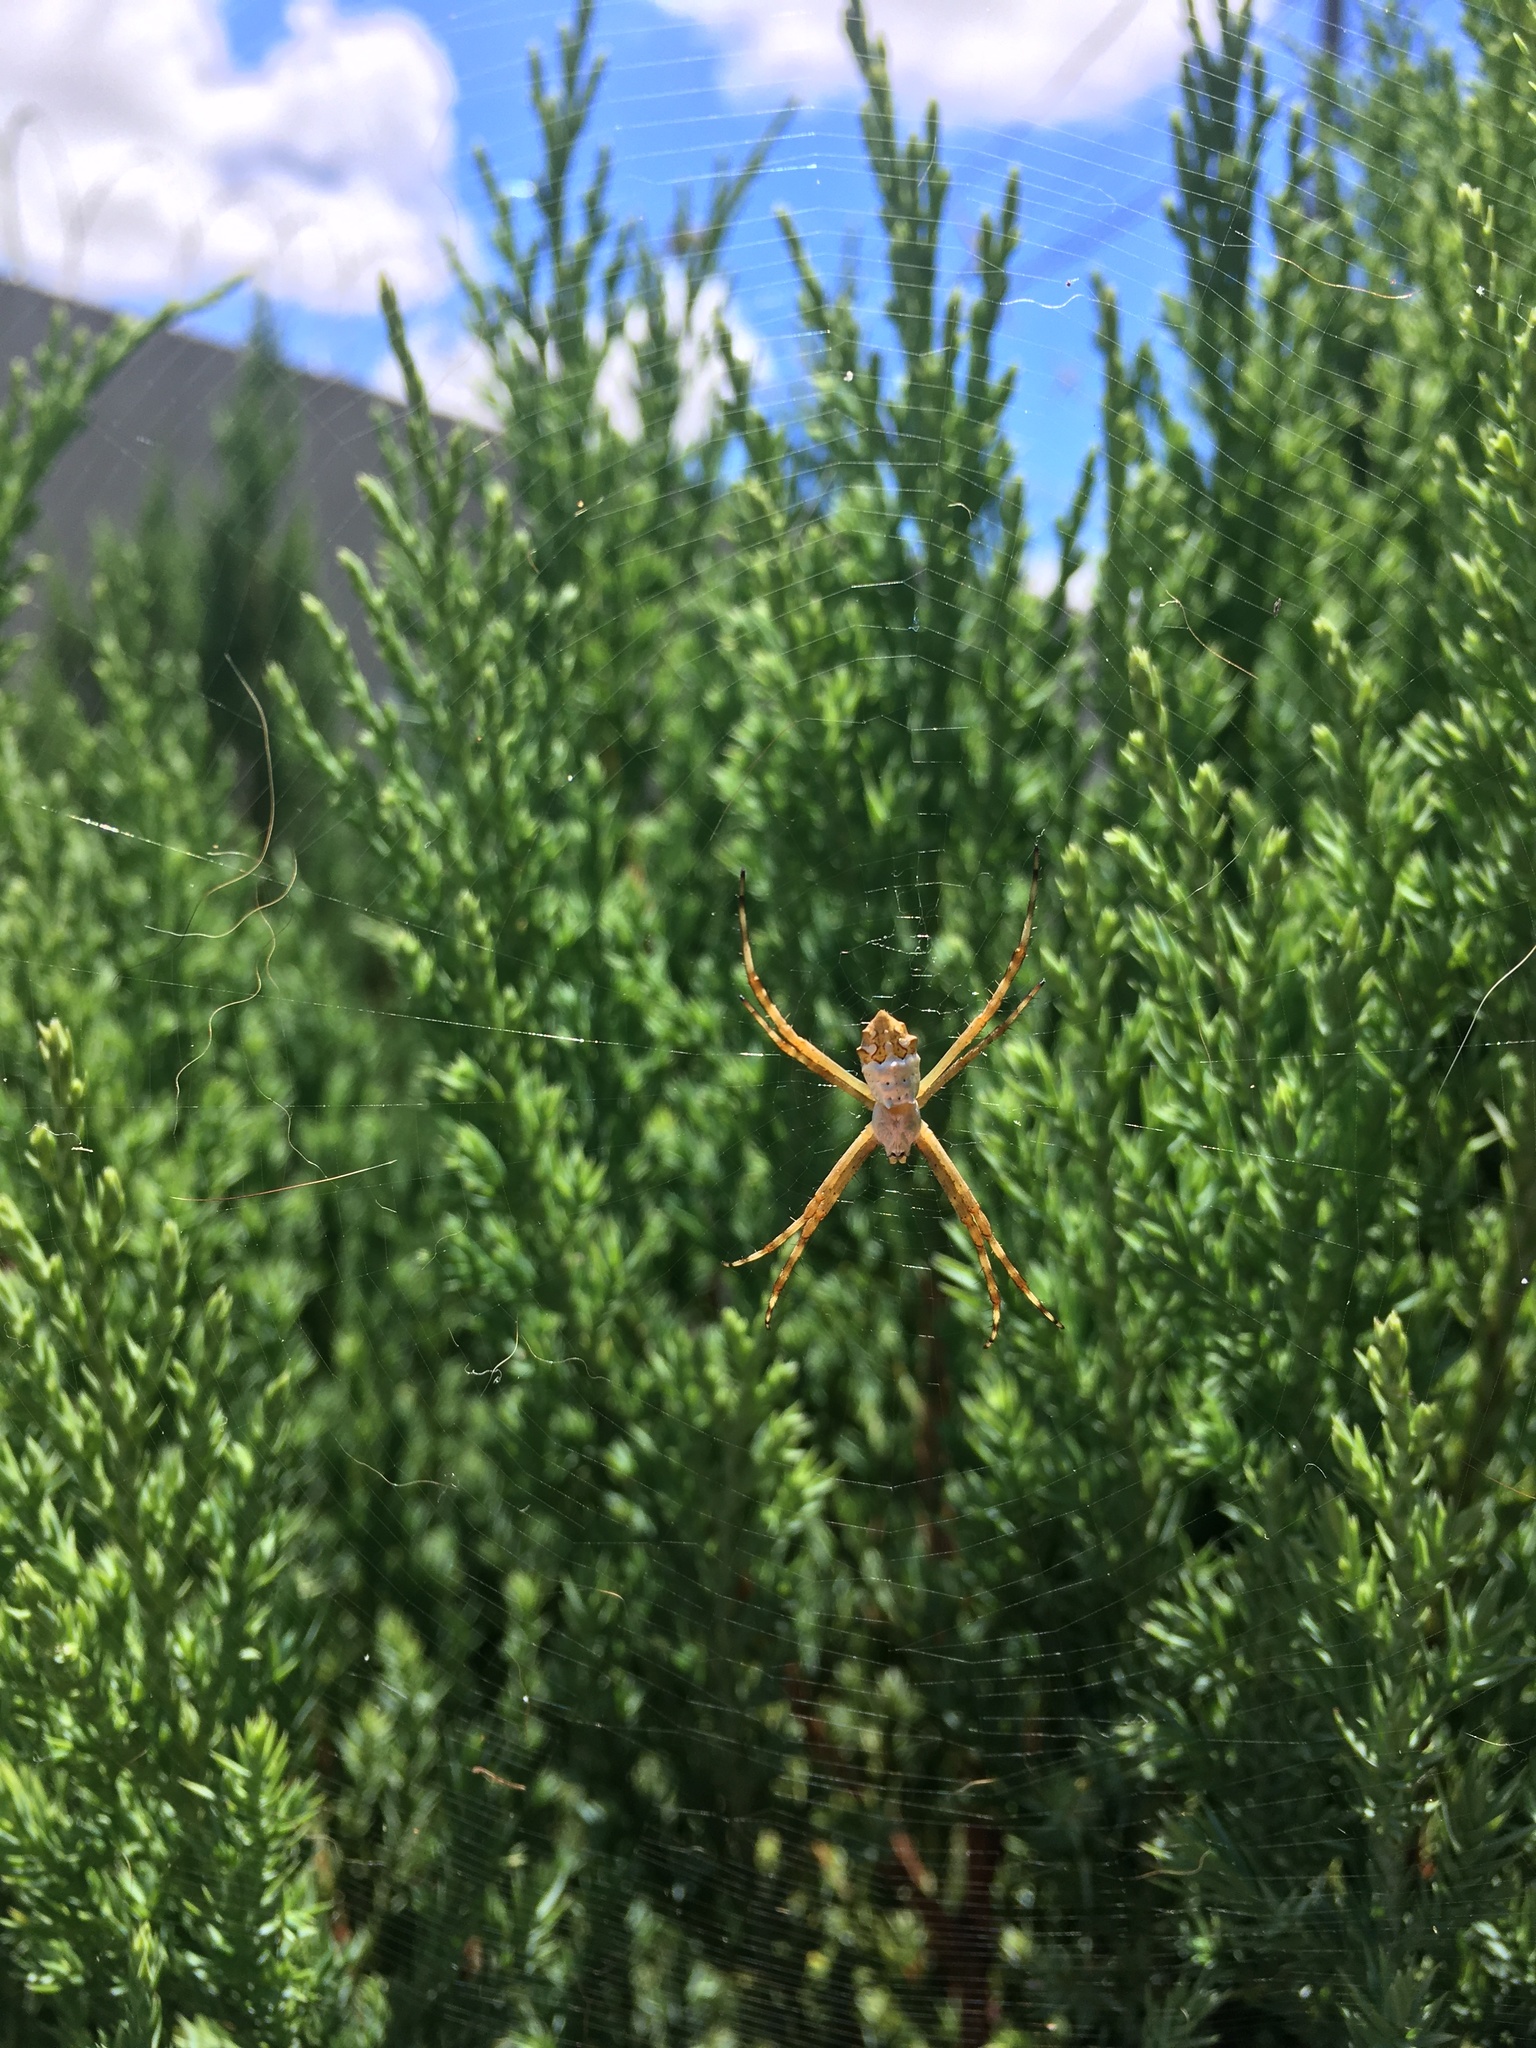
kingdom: Animalia
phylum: Arthropoda
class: Arachnida
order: Araneae
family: Araneidae
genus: Argiope
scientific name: Argiope argentata
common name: Orb weavers
